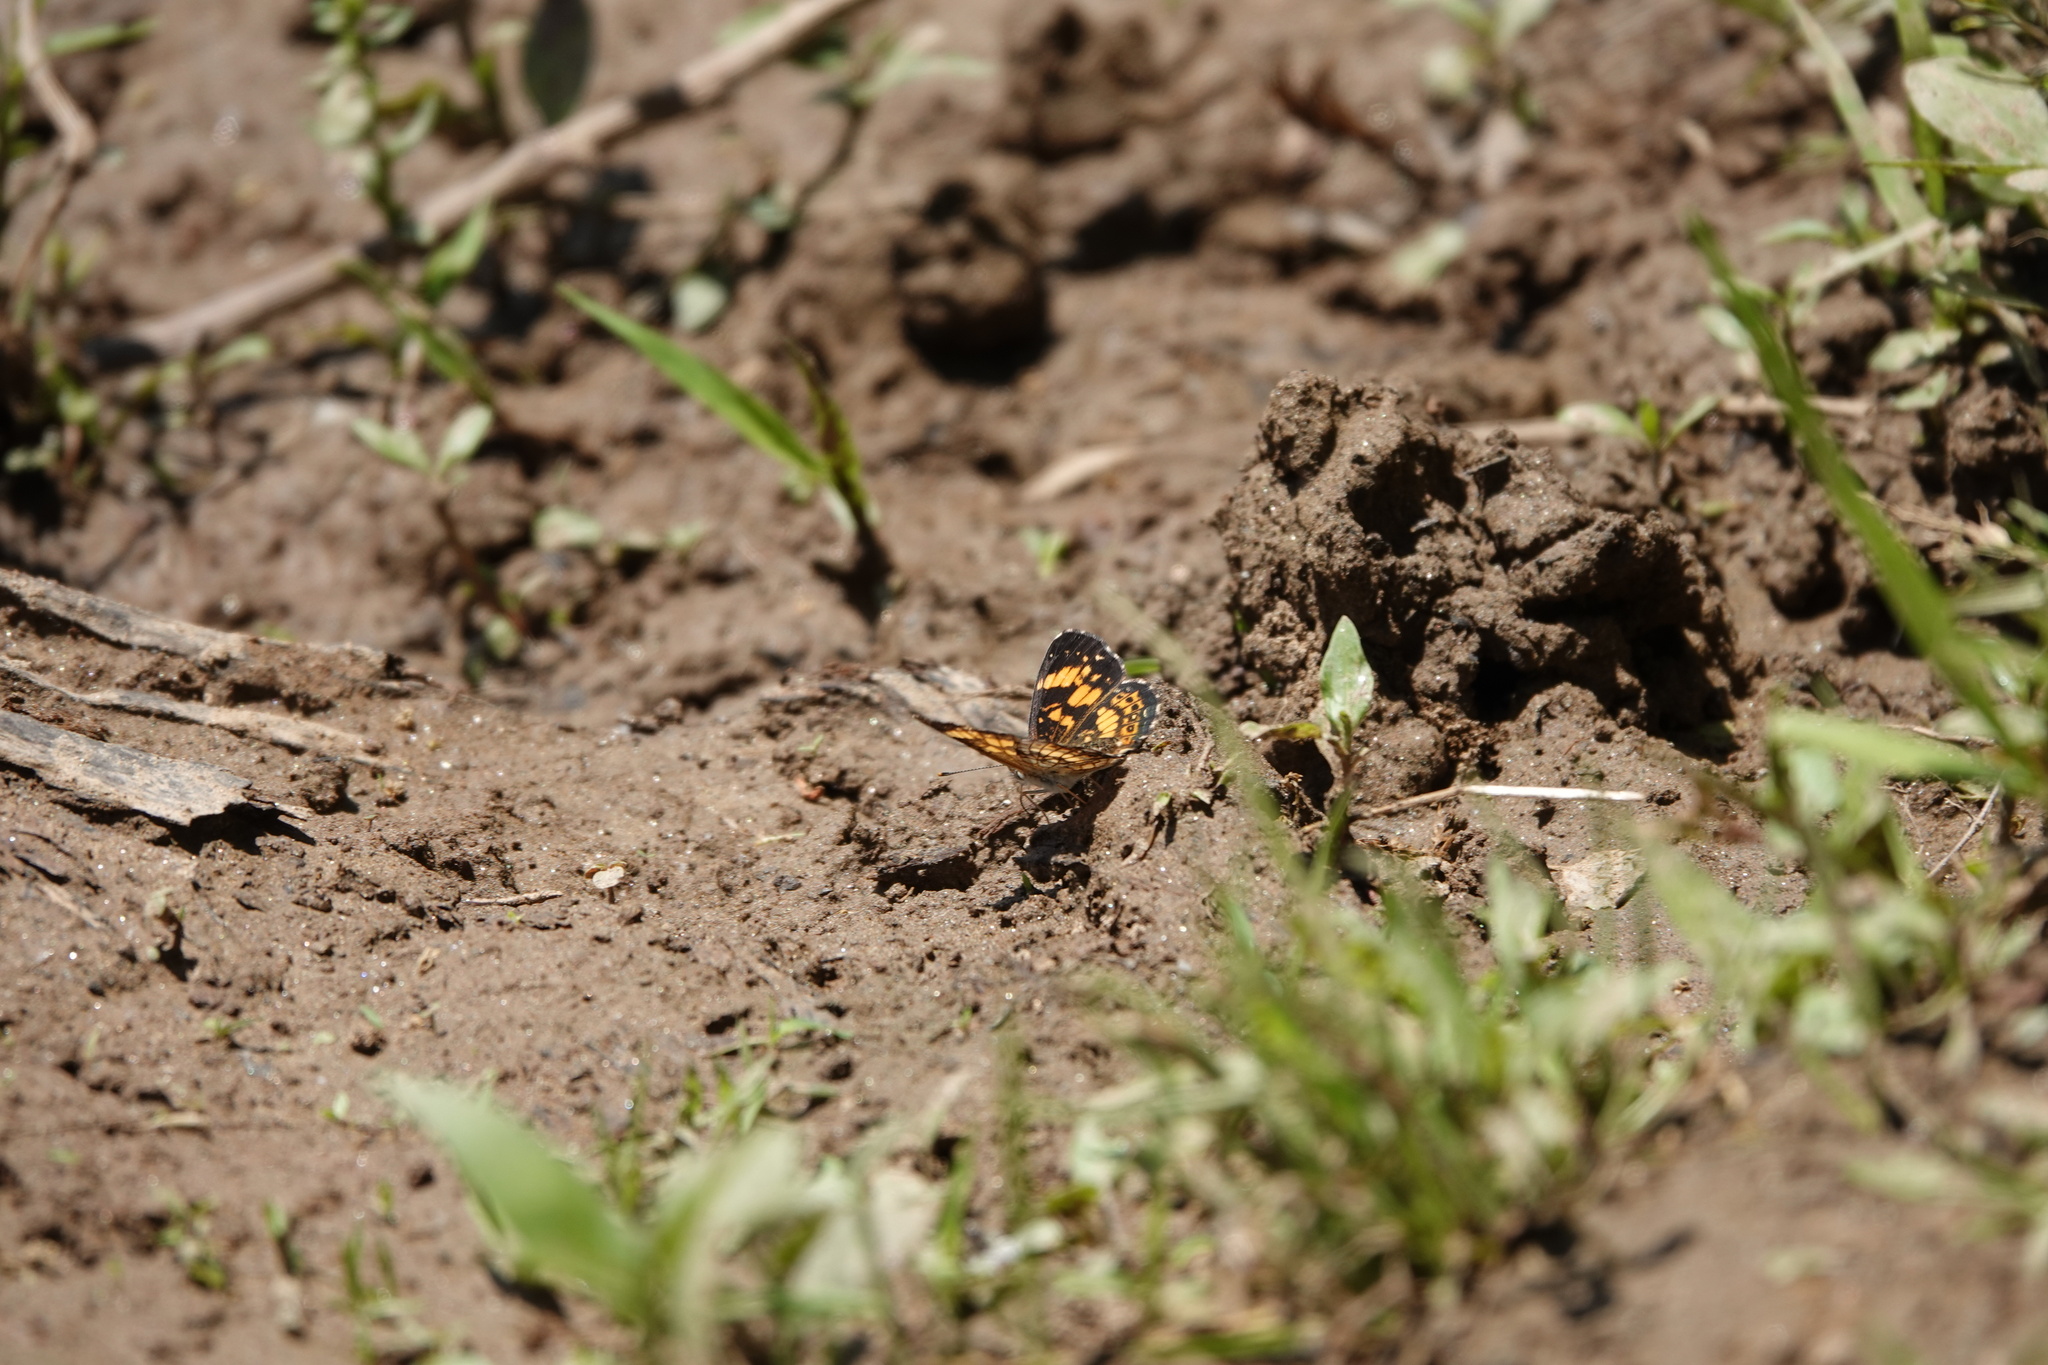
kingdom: Animalia
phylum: Arthropoda
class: Insecta
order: Lepidoptera
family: Nymphalidae
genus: Chlosyne
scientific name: Chlosyne nycteis
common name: Silvery checkerspot
